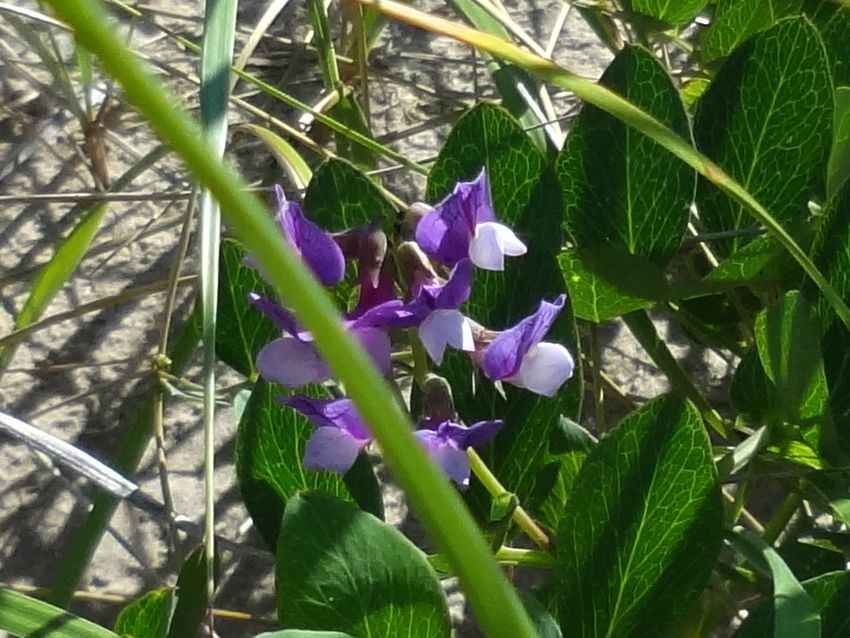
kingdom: Plantae
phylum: Tracheophyta
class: Magnoliopsida
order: Fabales
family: Fabaceae
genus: Lathyrus
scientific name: Lathyrus japonicus
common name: Sea pea
